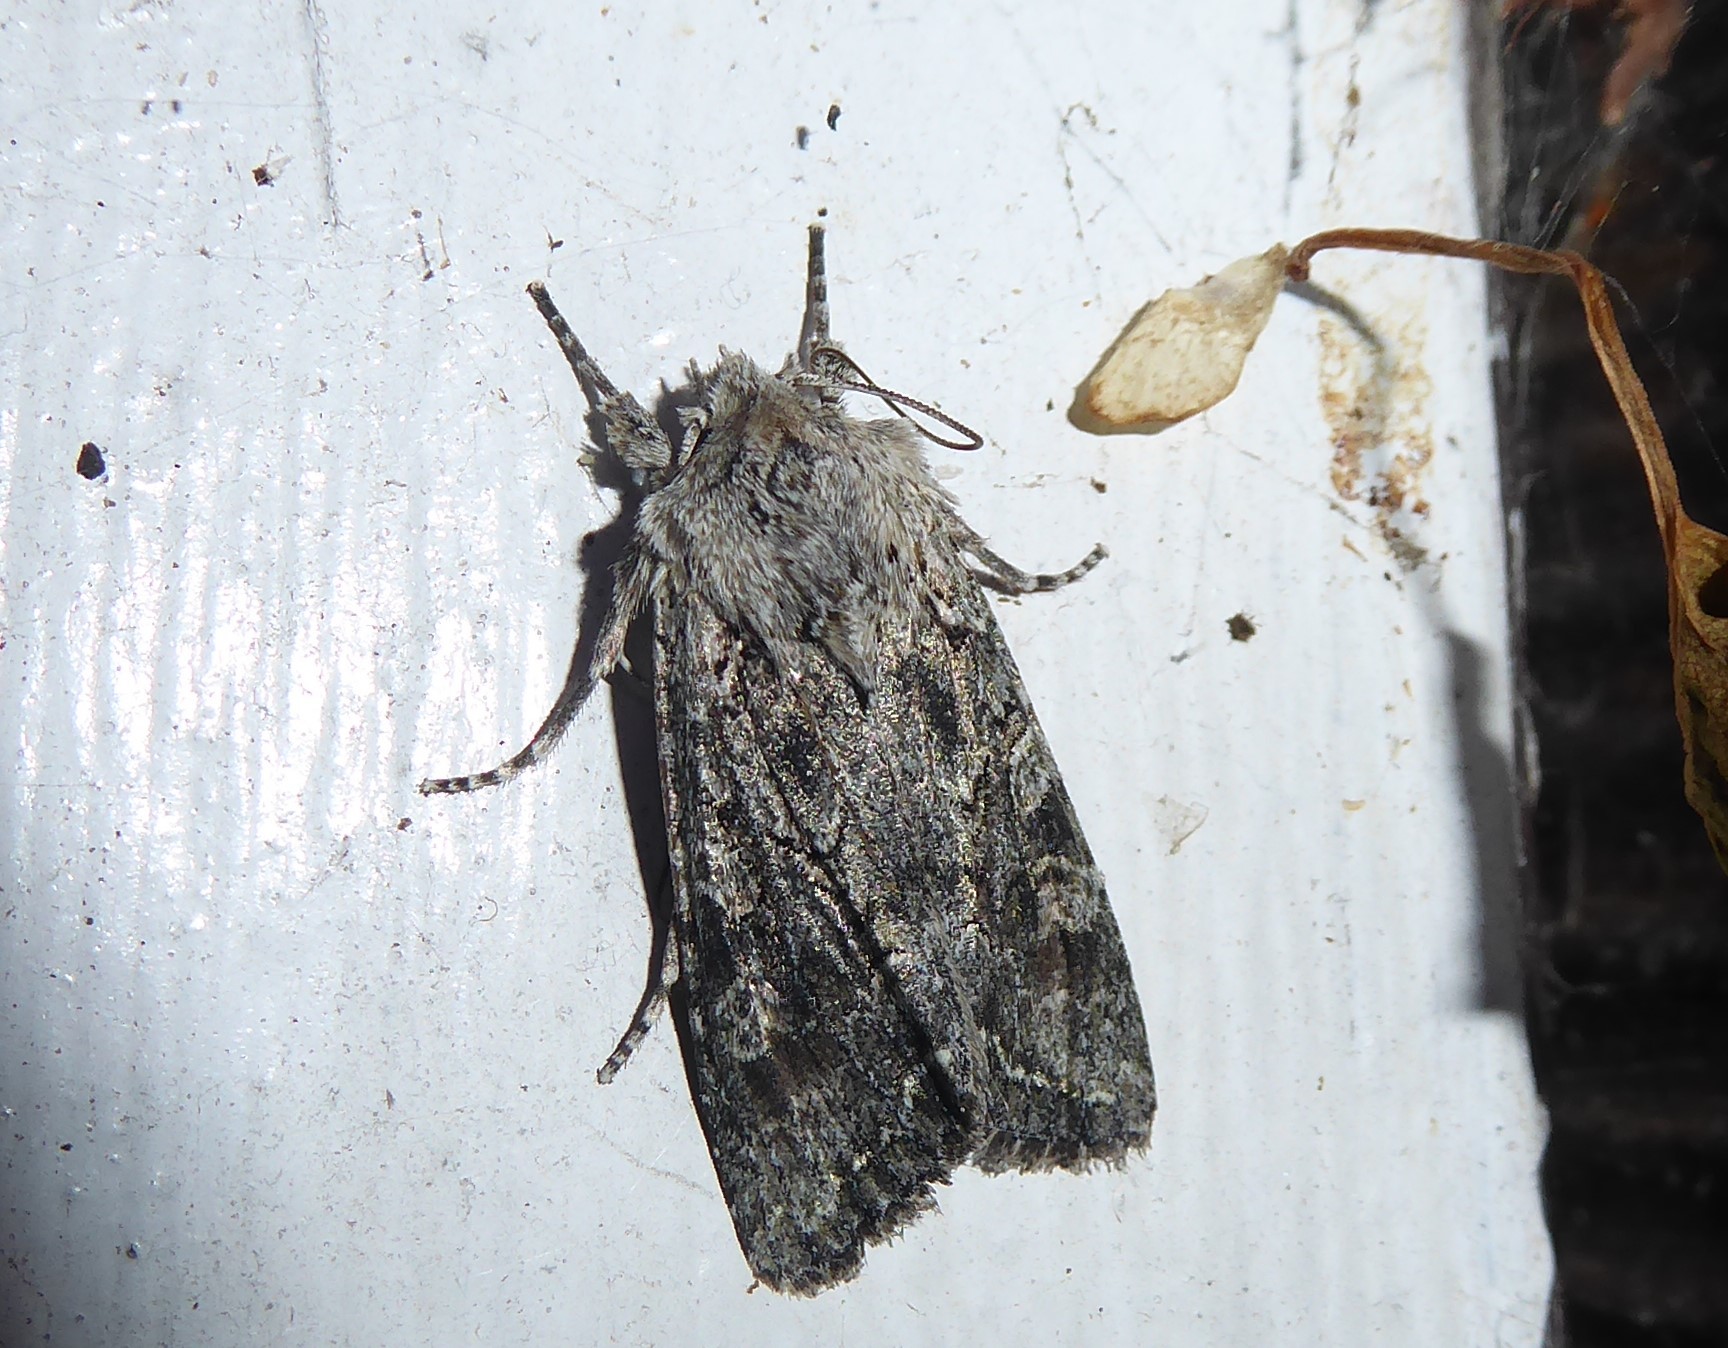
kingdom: Animalia
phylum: Arthropoda
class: Insecta
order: Lepidoptera
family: Noctuidae
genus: Ichneutica
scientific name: Ichneutica mutans
